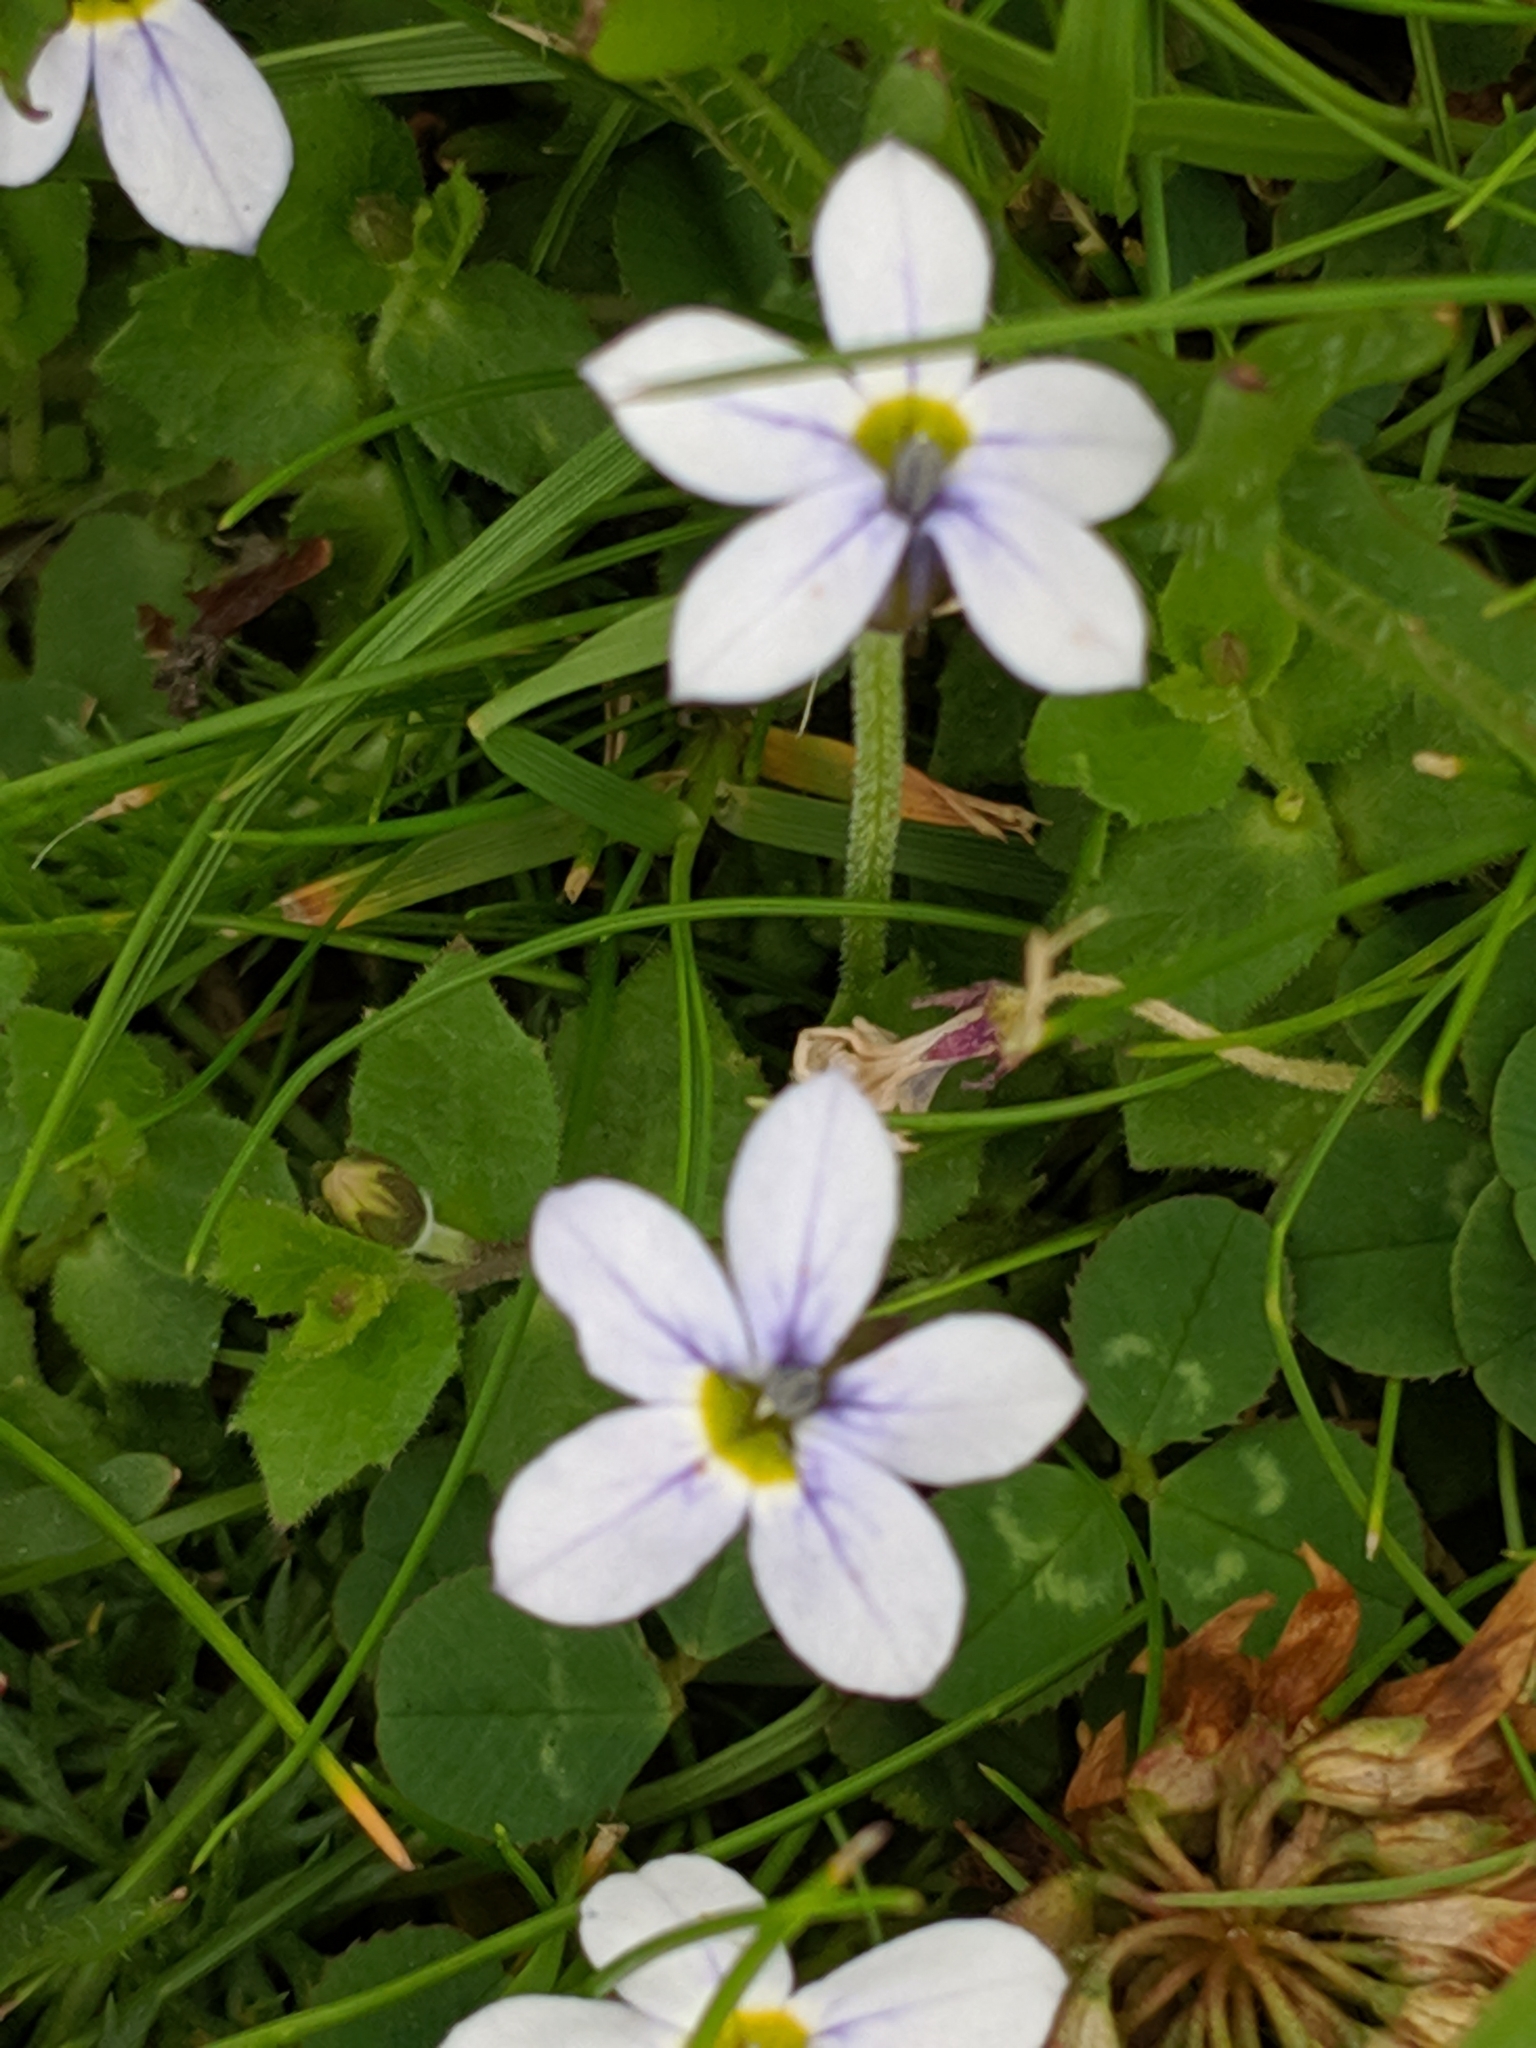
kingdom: Plantae
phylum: Tracheophyta
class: Magnoliopsida
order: Asterales
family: Campanulaceae
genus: Lobelia
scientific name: Lobelia pedunculata
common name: Matted pratia
